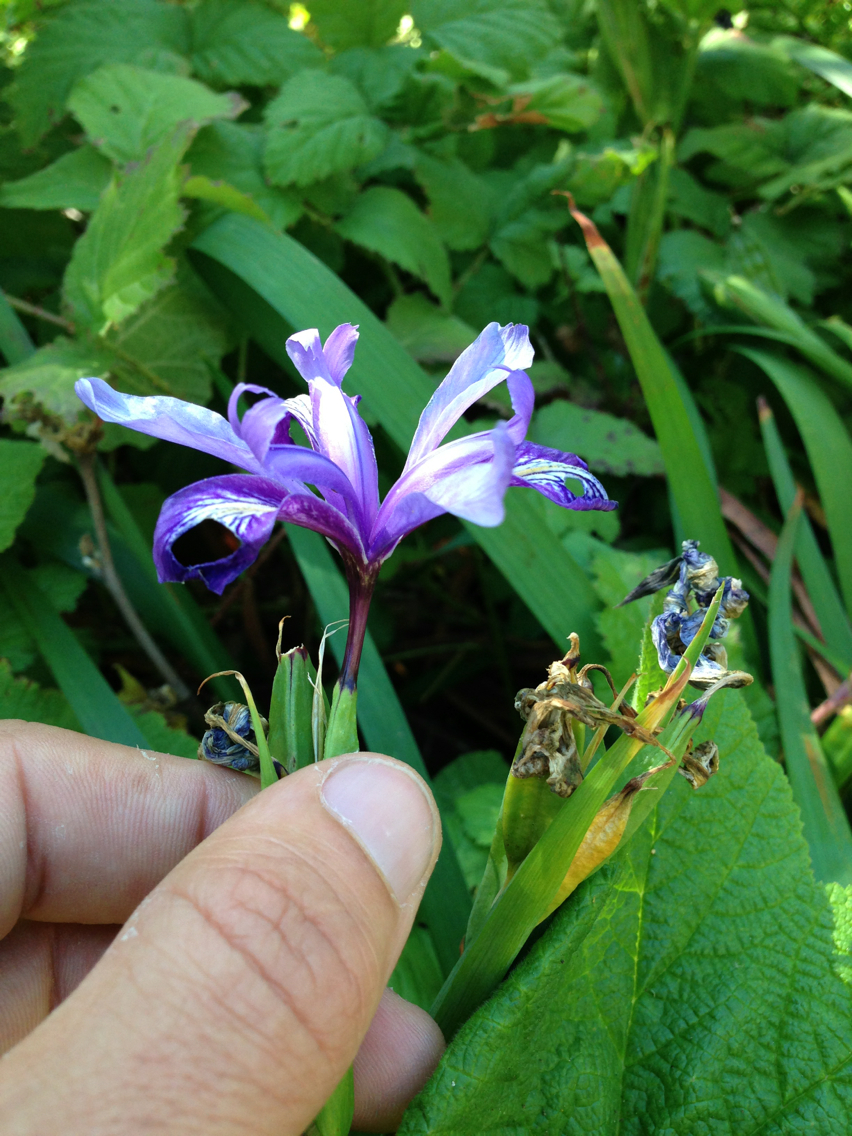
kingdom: Plantae
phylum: Tracheophyta
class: Liliopsida
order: Asparagales
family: Iridaceae
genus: Iris
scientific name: Iris douglasiana
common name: Marin iris
